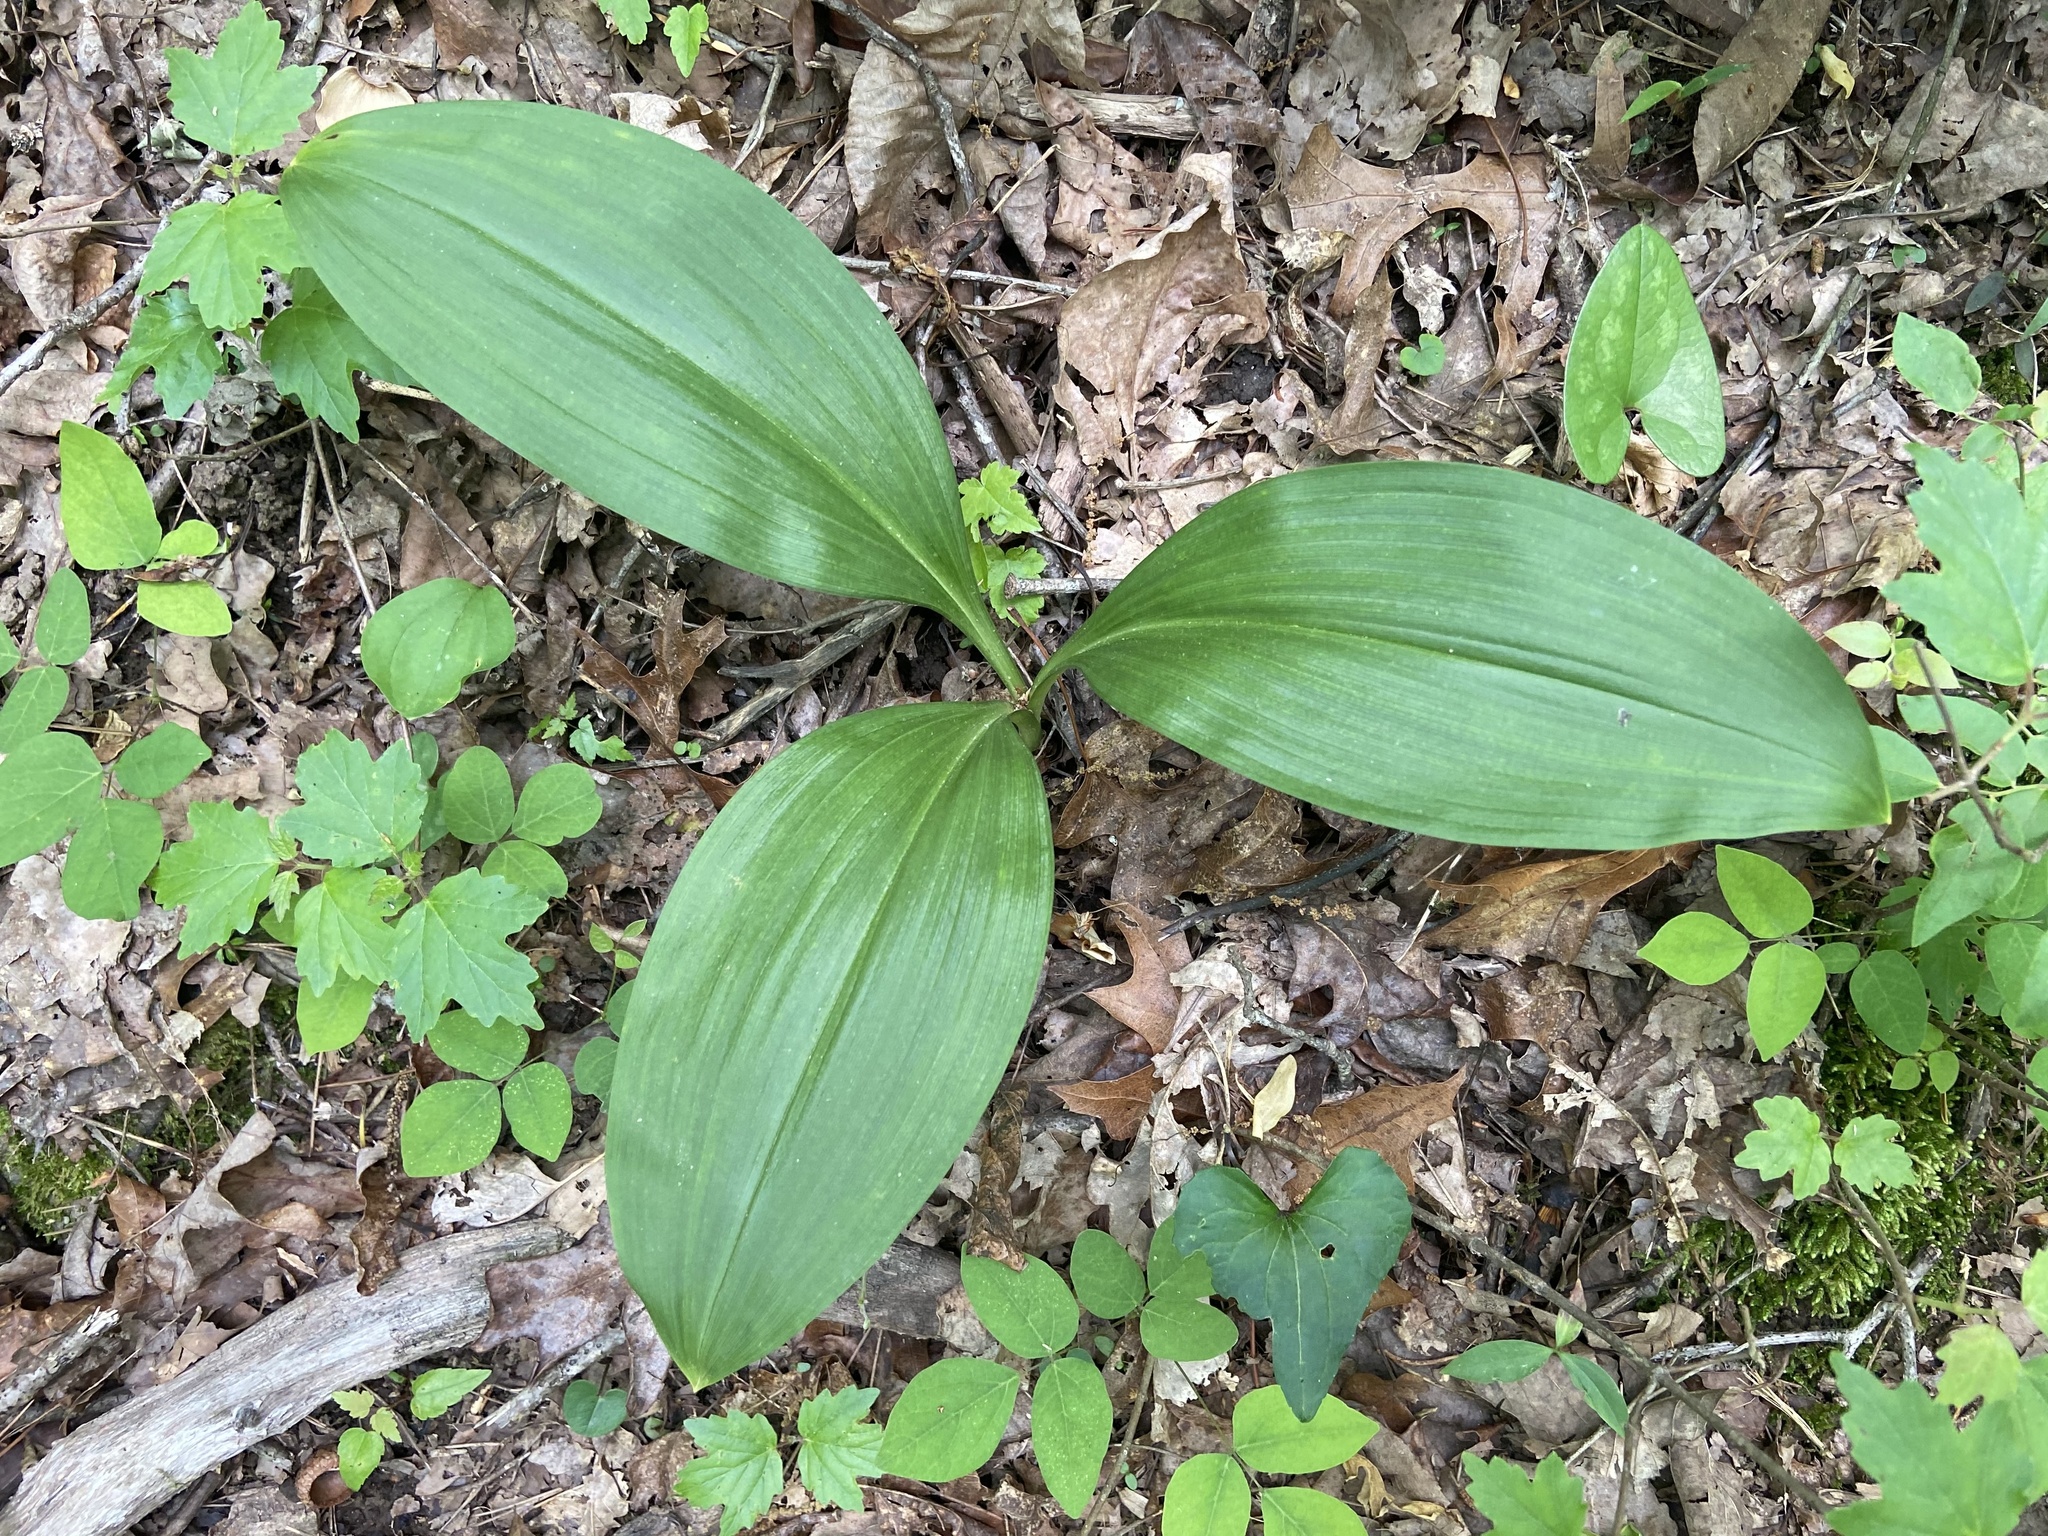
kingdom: Plantae
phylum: Tracheophyta
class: Liliopsida
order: Liliales
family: Melanthiaceae
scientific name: Melanthiaceae
